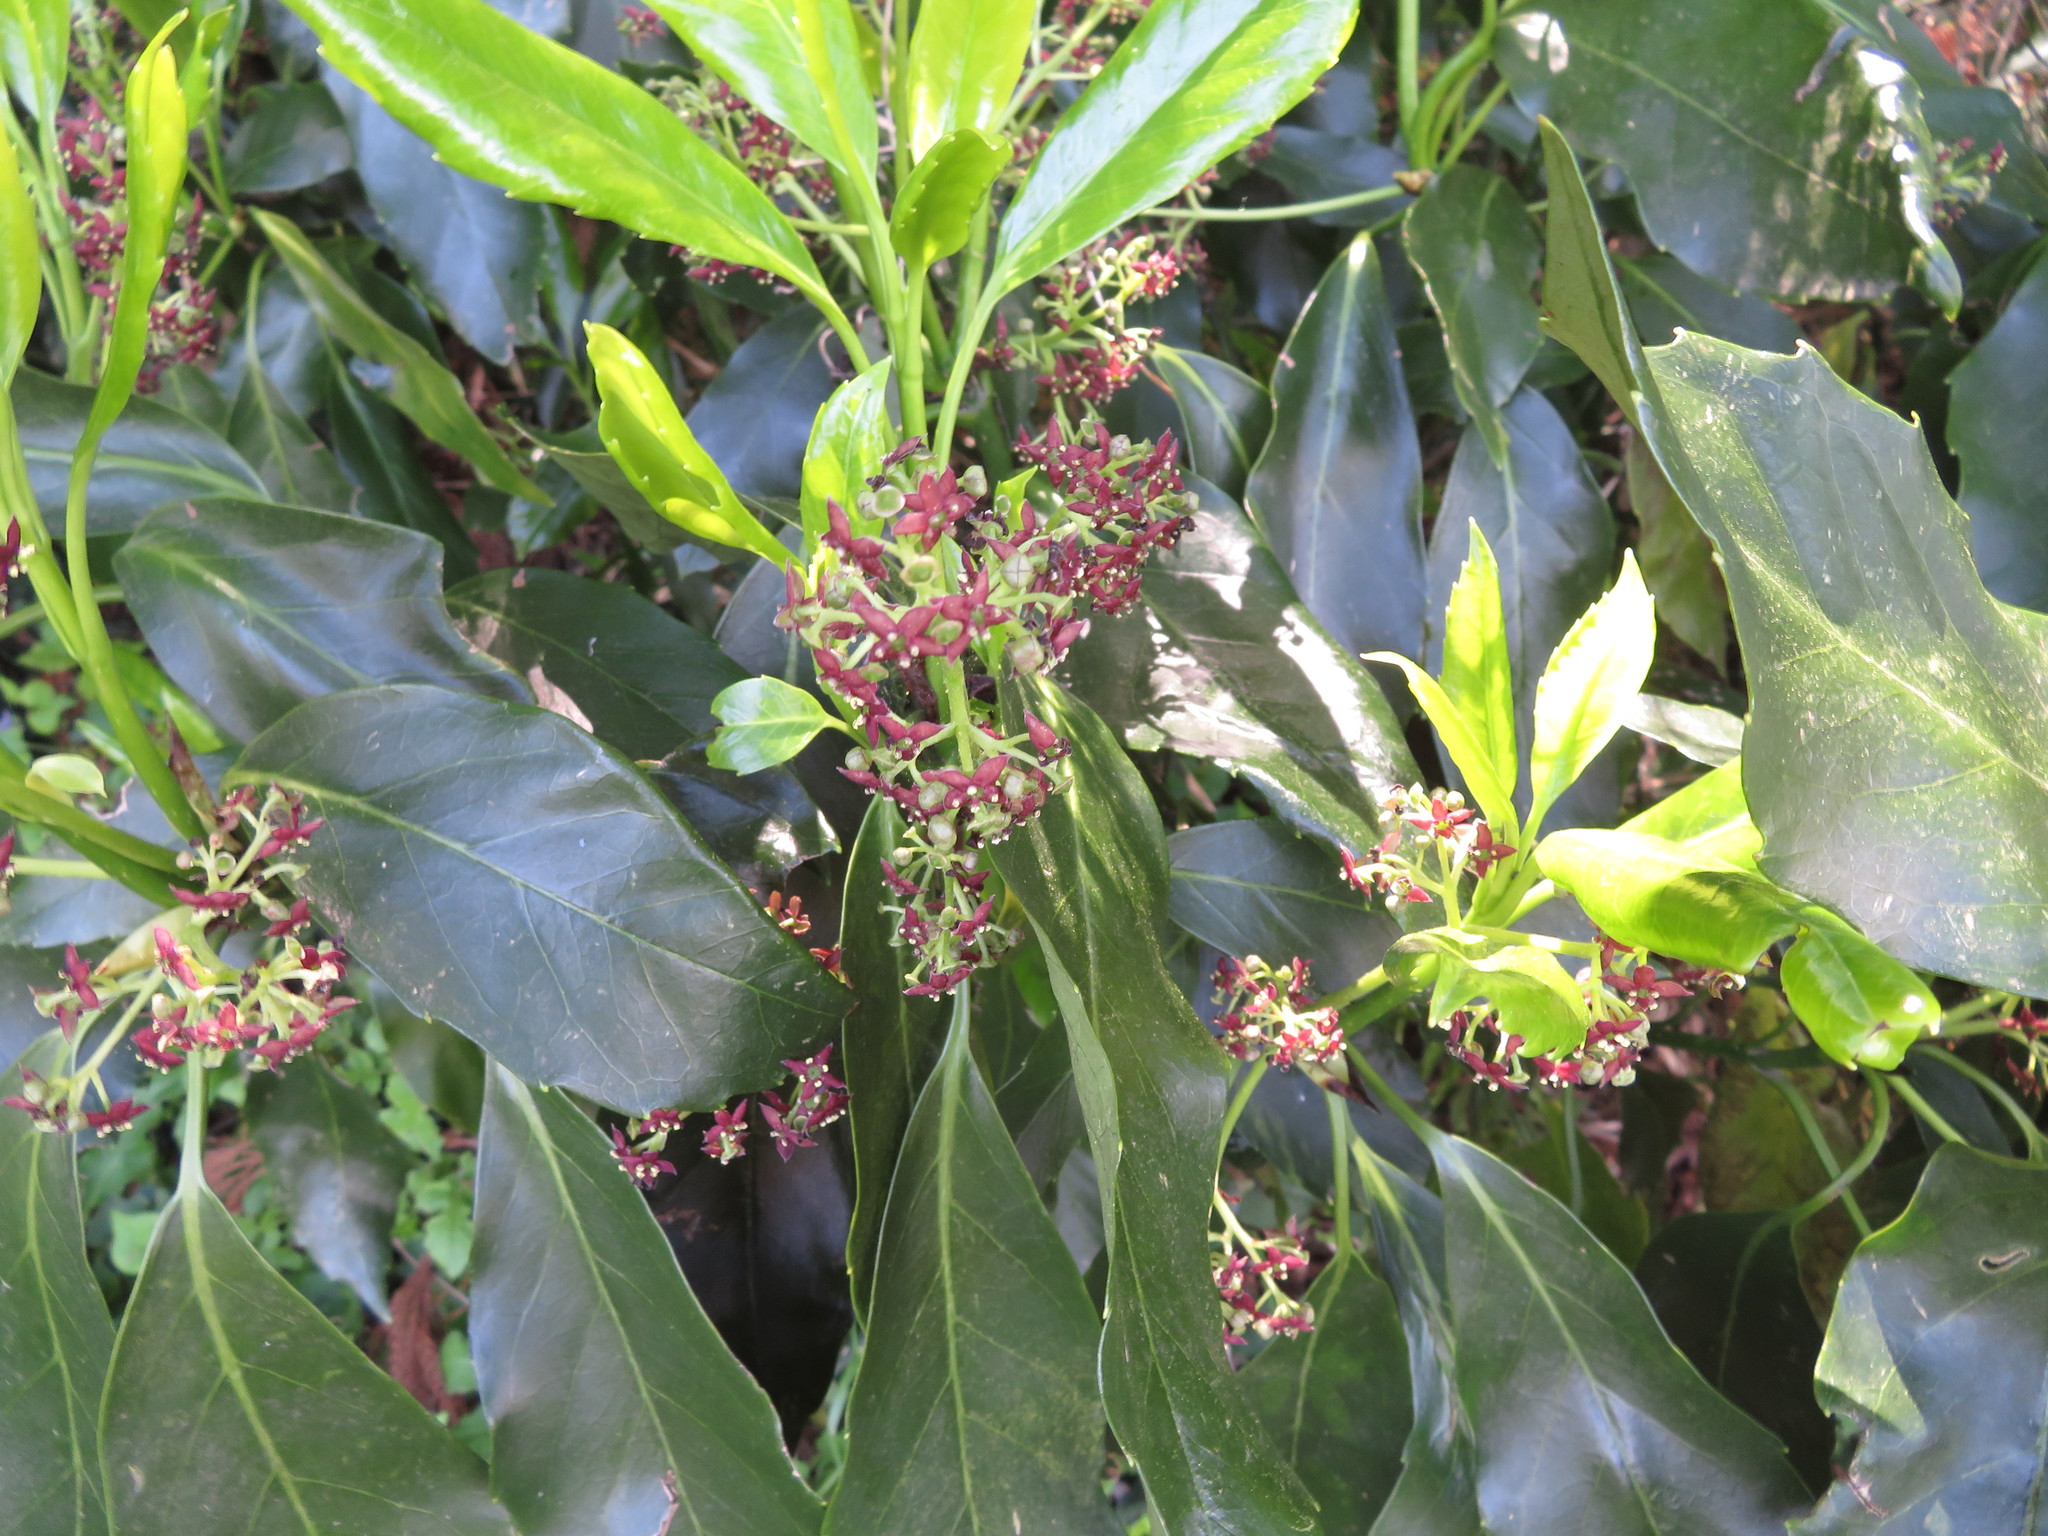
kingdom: Plantae
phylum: Tracheophyta
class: Magnoliopsida
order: Garryales
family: Garryaceae
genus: Aucuba
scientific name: Aucuba japonica
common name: Spotted-laurel
